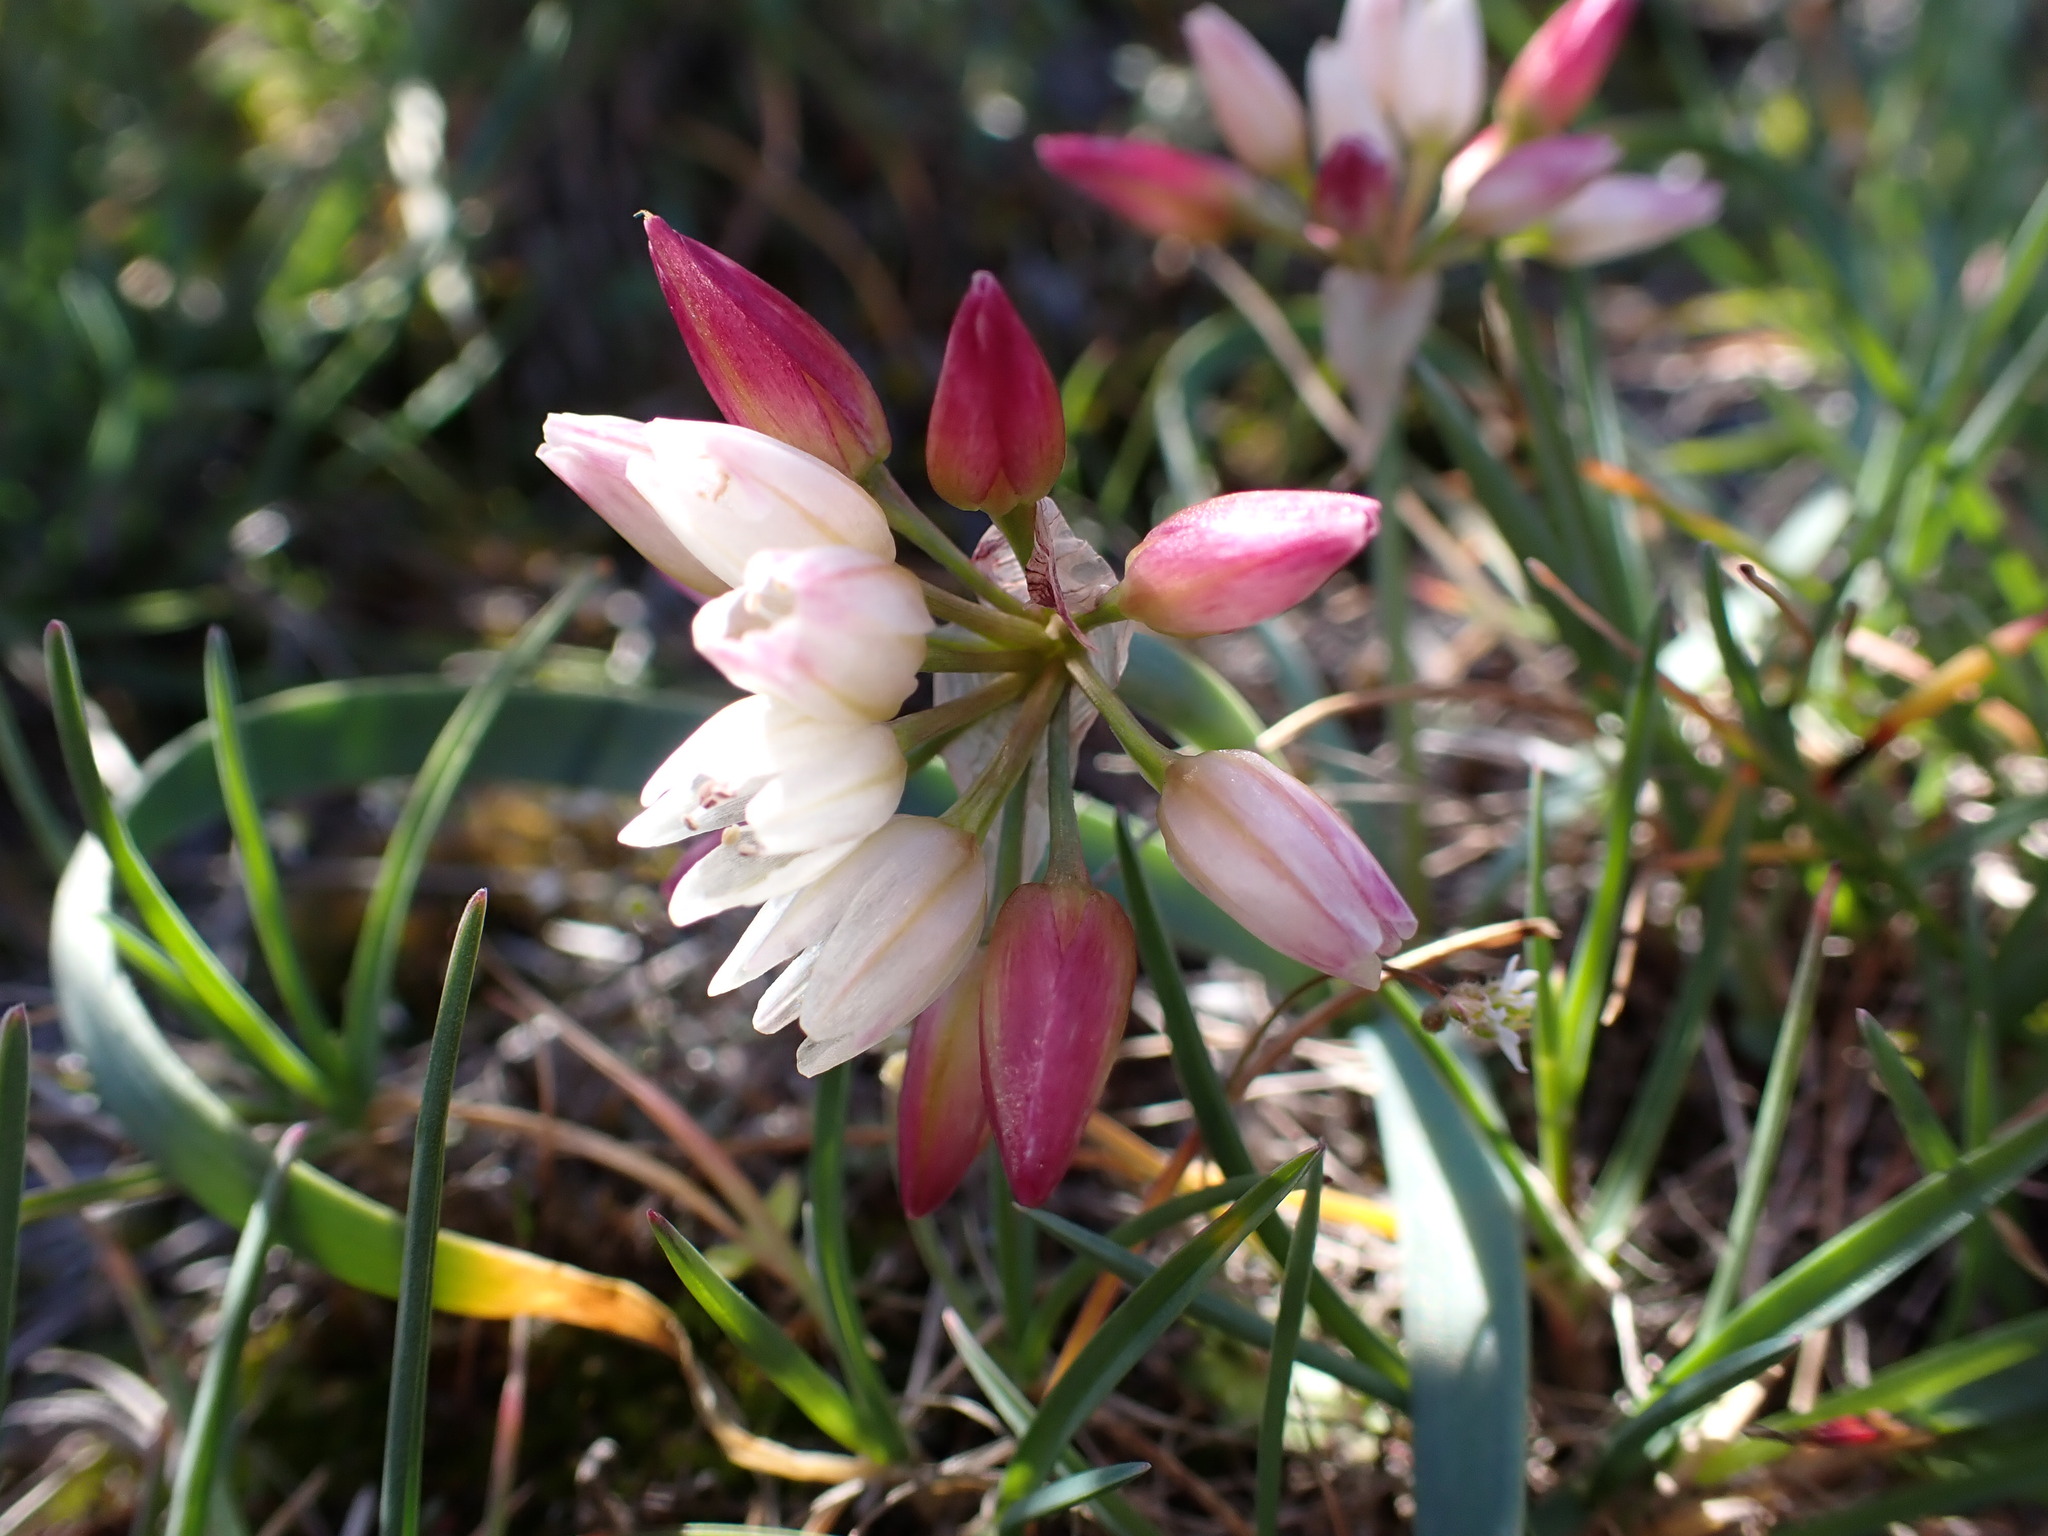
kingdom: Plantae
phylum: Tracheophyta
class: Liliopsida
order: Asparagales
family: Amaryllidaceae
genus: Allium
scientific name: Allium scilloides
